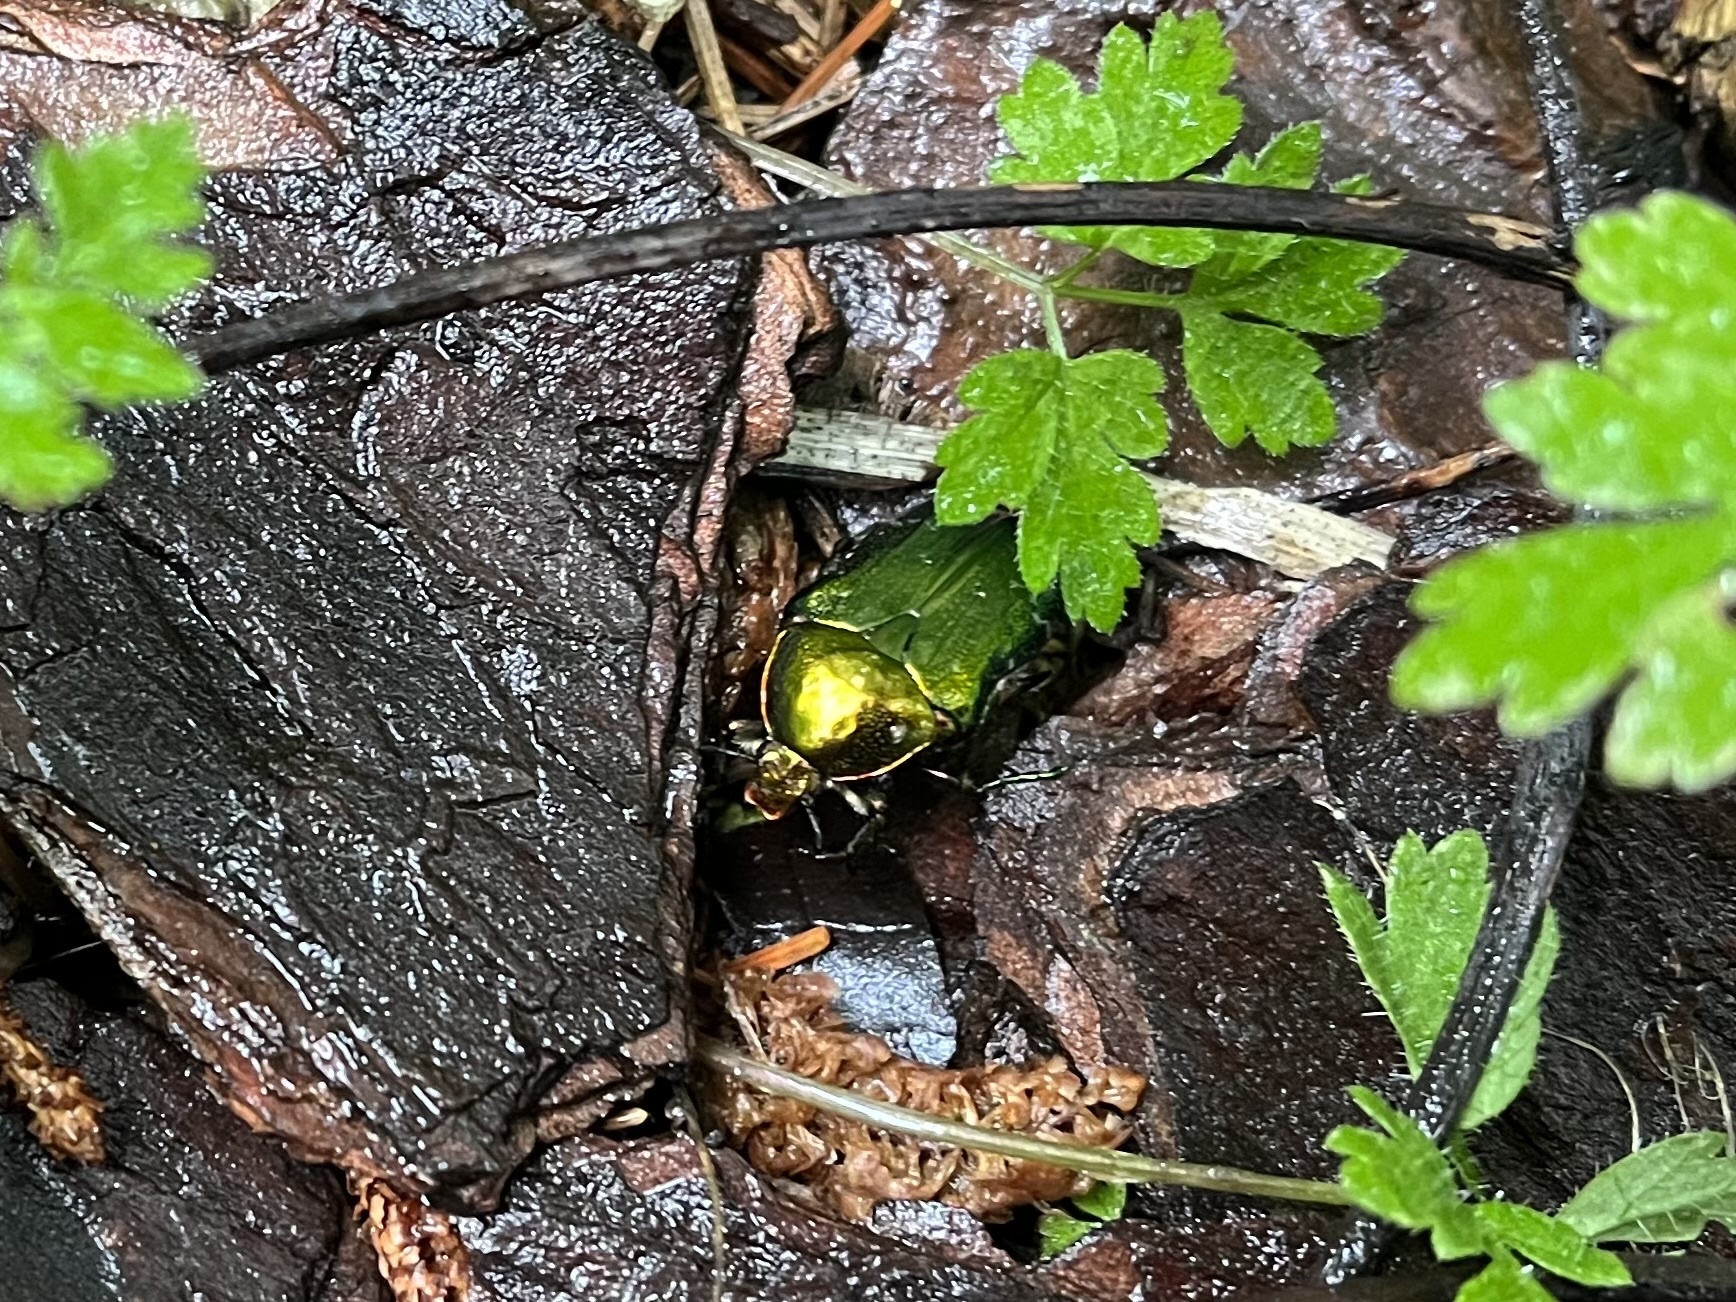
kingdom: Animalia
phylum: Arthropoda
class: Insecta
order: Coleoptera
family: Scarabaeidae
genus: Cetonia
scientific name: Cetonia aurata
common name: Rose chafer
